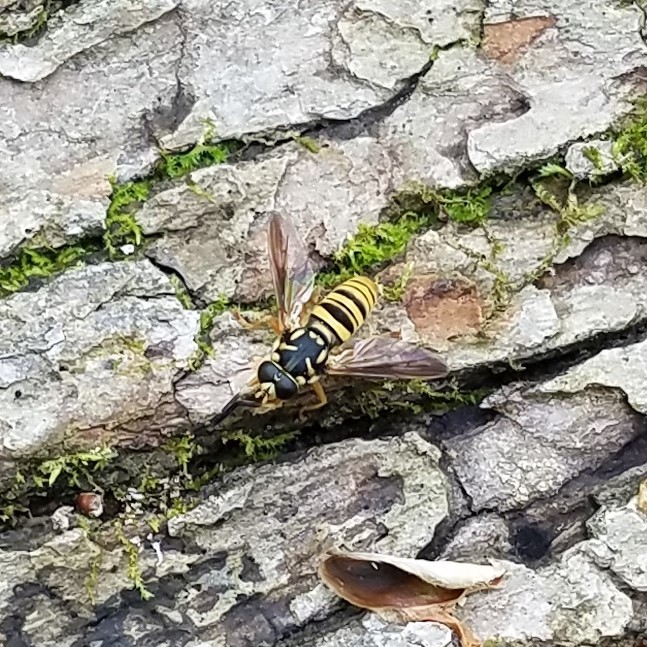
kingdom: Animalia
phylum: Arthropoda
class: Insecta
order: Diptera
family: Syrphidae
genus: Temnostoma
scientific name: Temnostoma daochum
